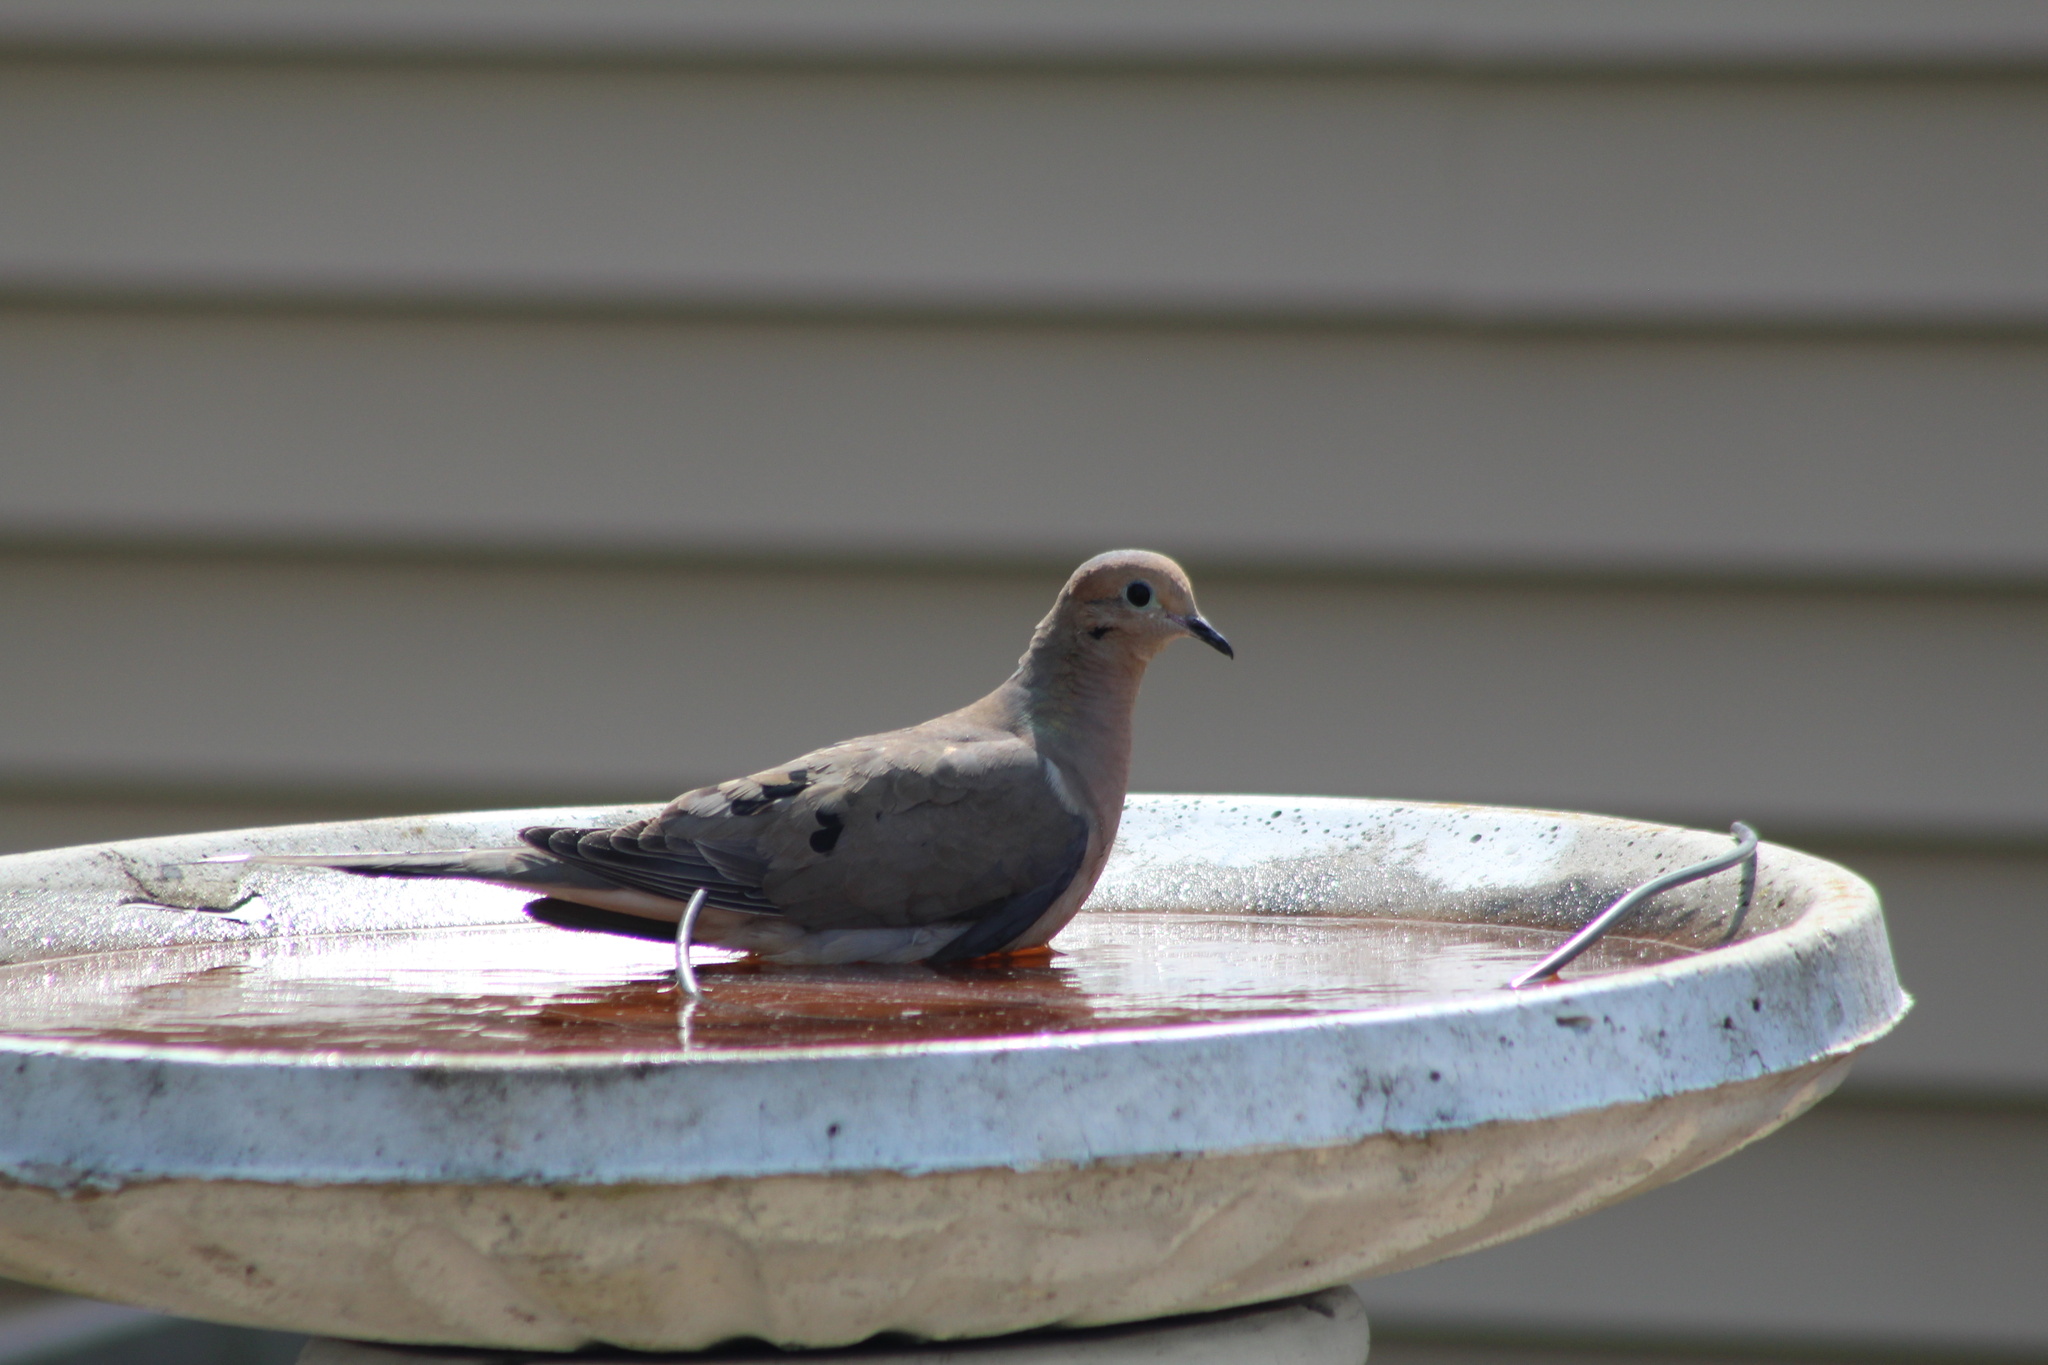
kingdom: Animalia
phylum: Chordata
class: Aves
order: Columbiformes
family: Columbidae
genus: Zenaida
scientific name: Zenaida macroura
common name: Mourning dove
